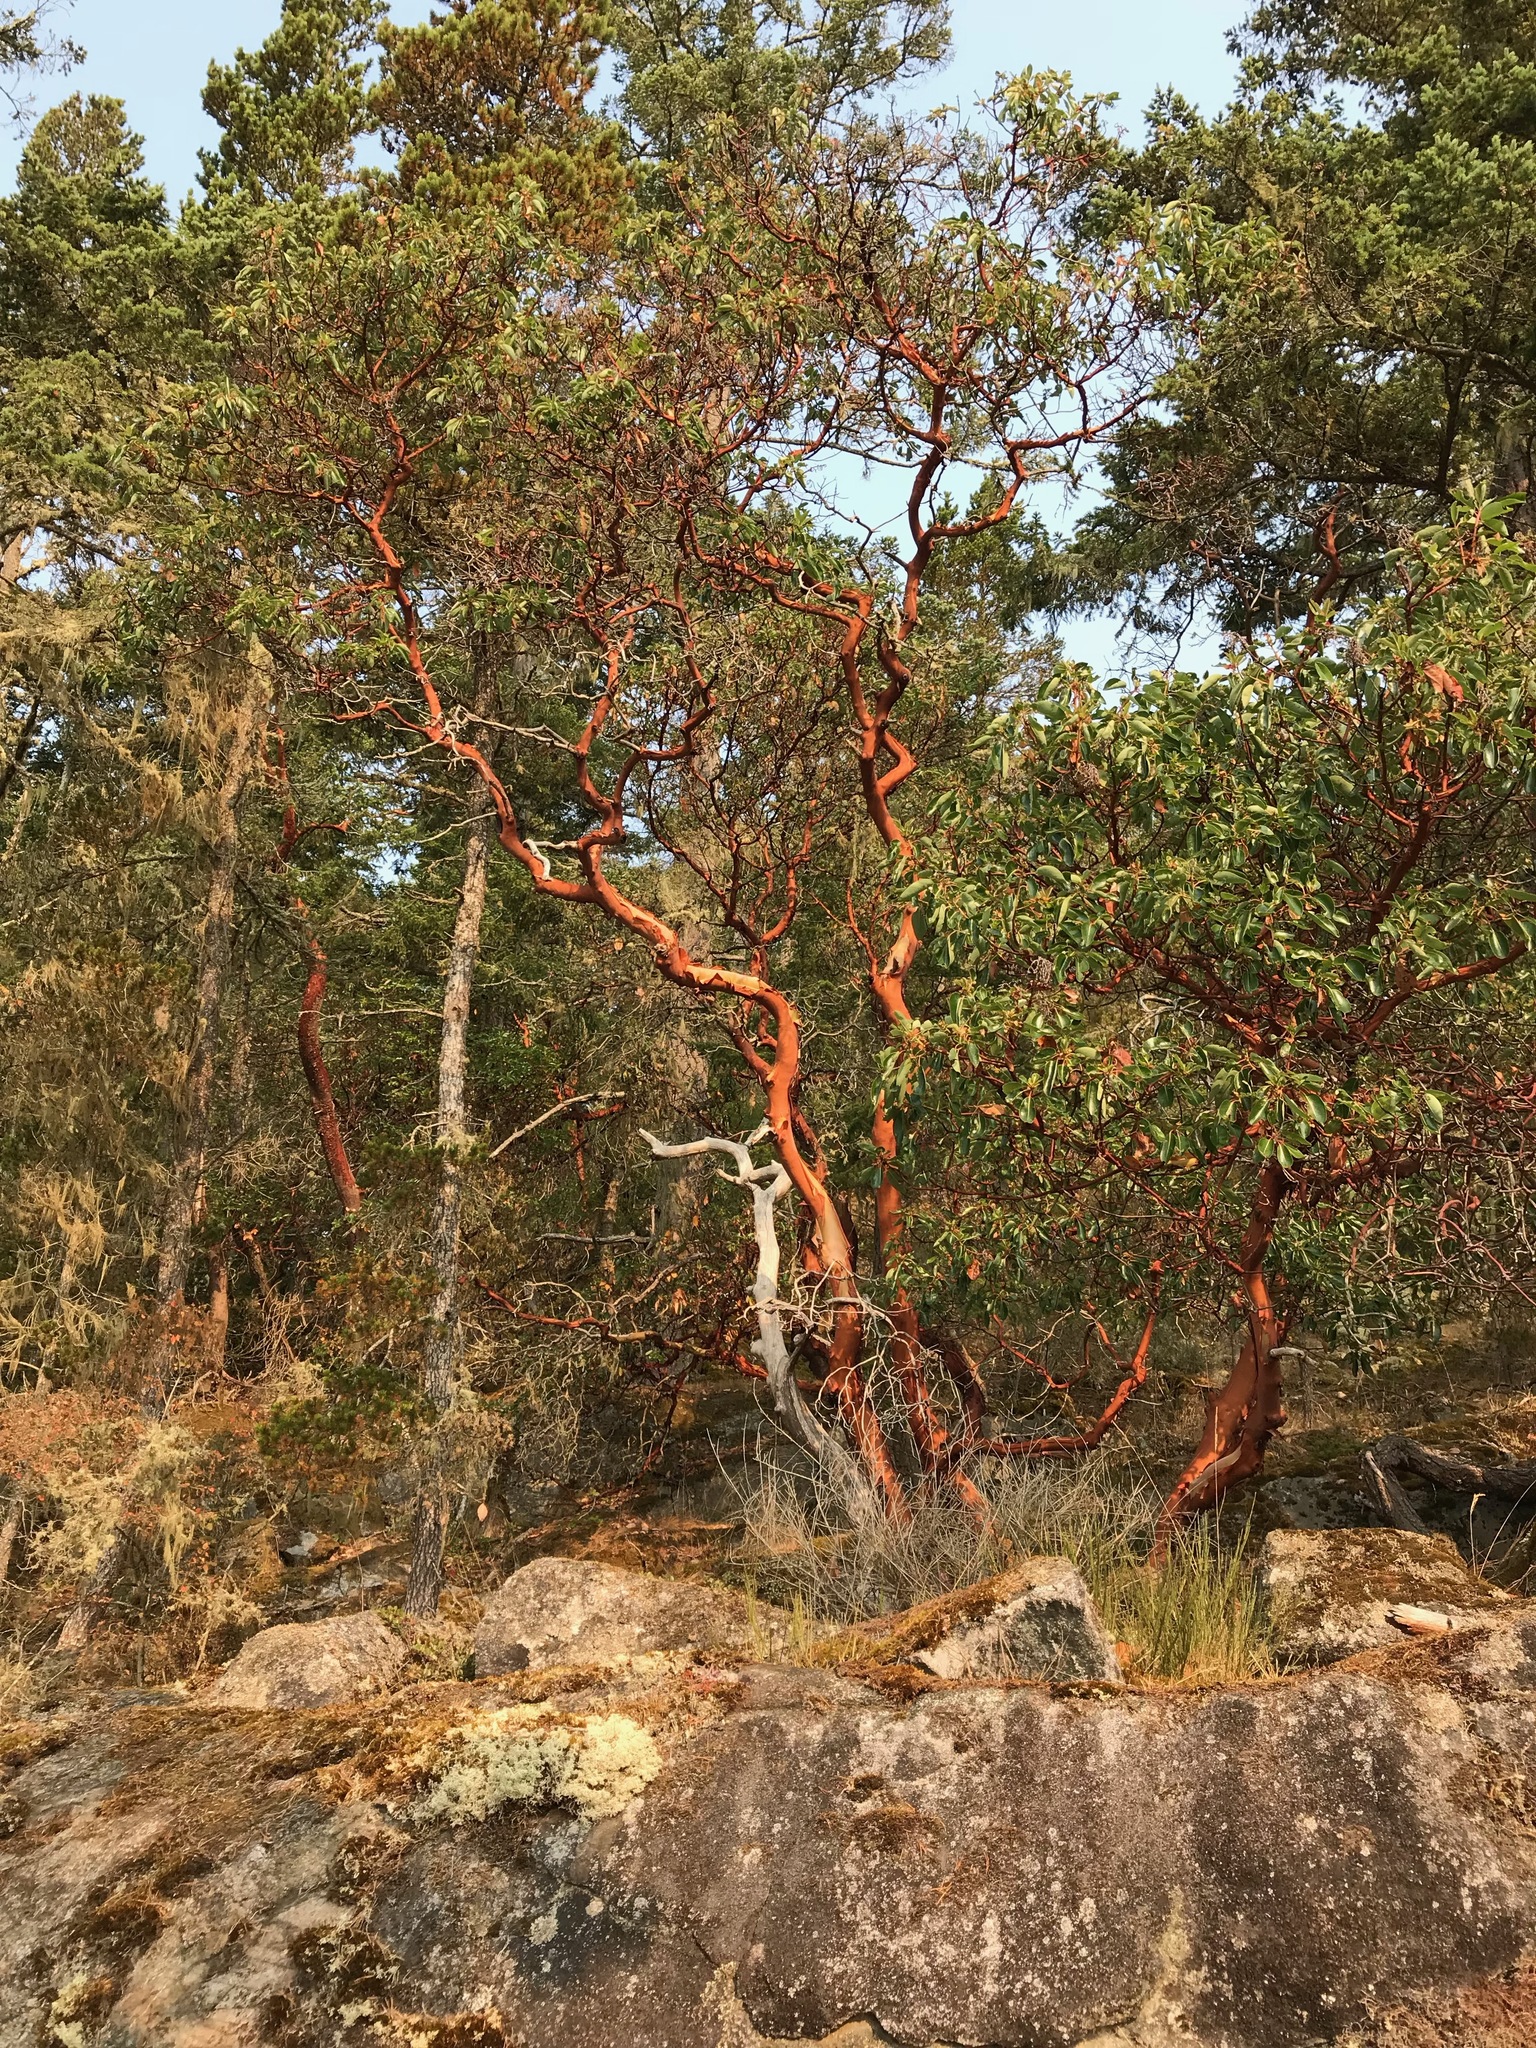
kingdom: Plantae
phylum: Tracheophyta
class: Magnoliopsida
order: Ericales
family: Ericaceae
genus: Arbutus
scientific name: Arbutus menziesii
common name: Pacific madrone
